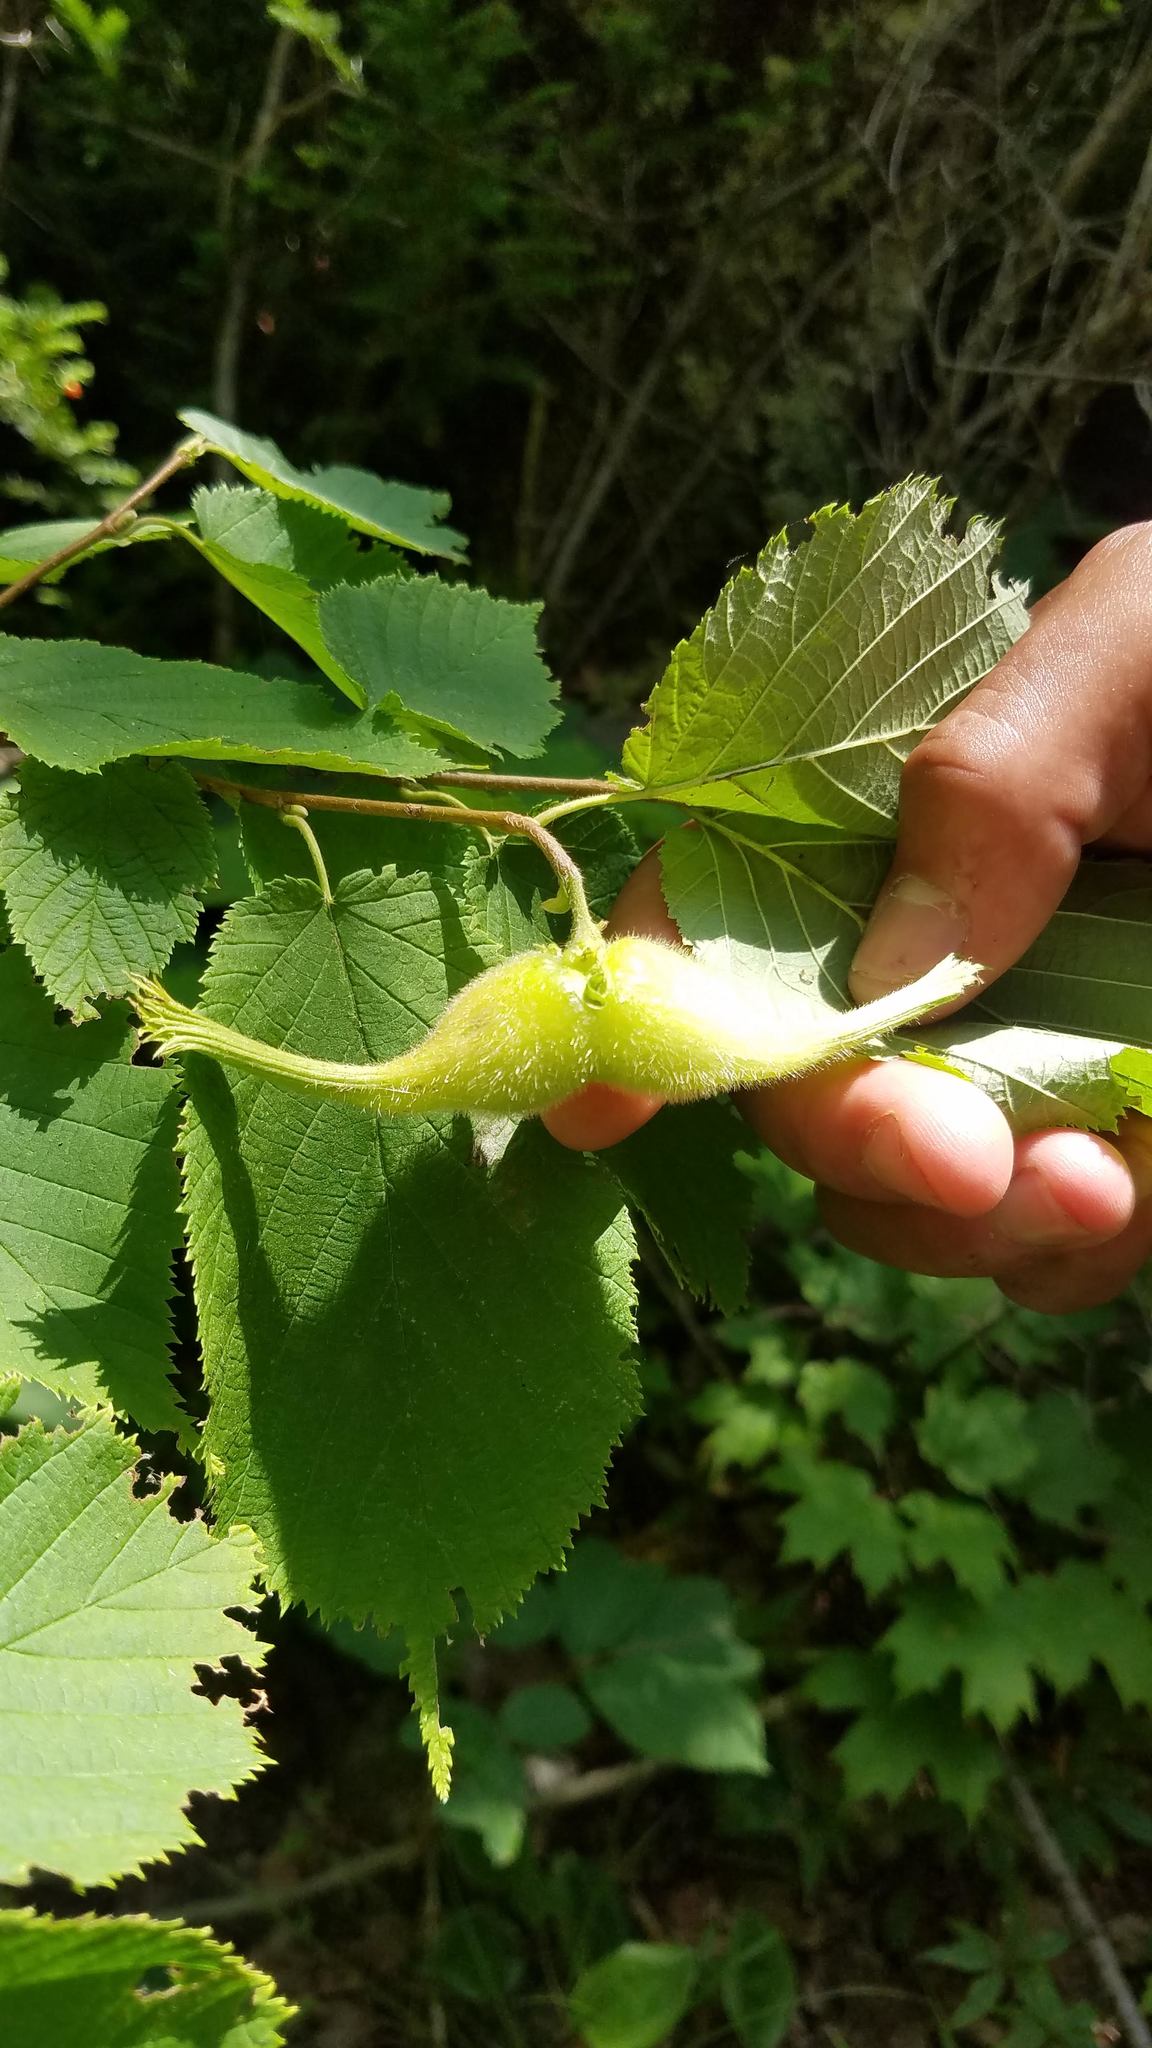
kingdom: Plantae
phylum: Tracheophyta
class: Magnoliopsida
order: Fagales
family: Betulaceae
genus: Corylus
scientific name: Corylus cornuta
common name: Beaked hazel
